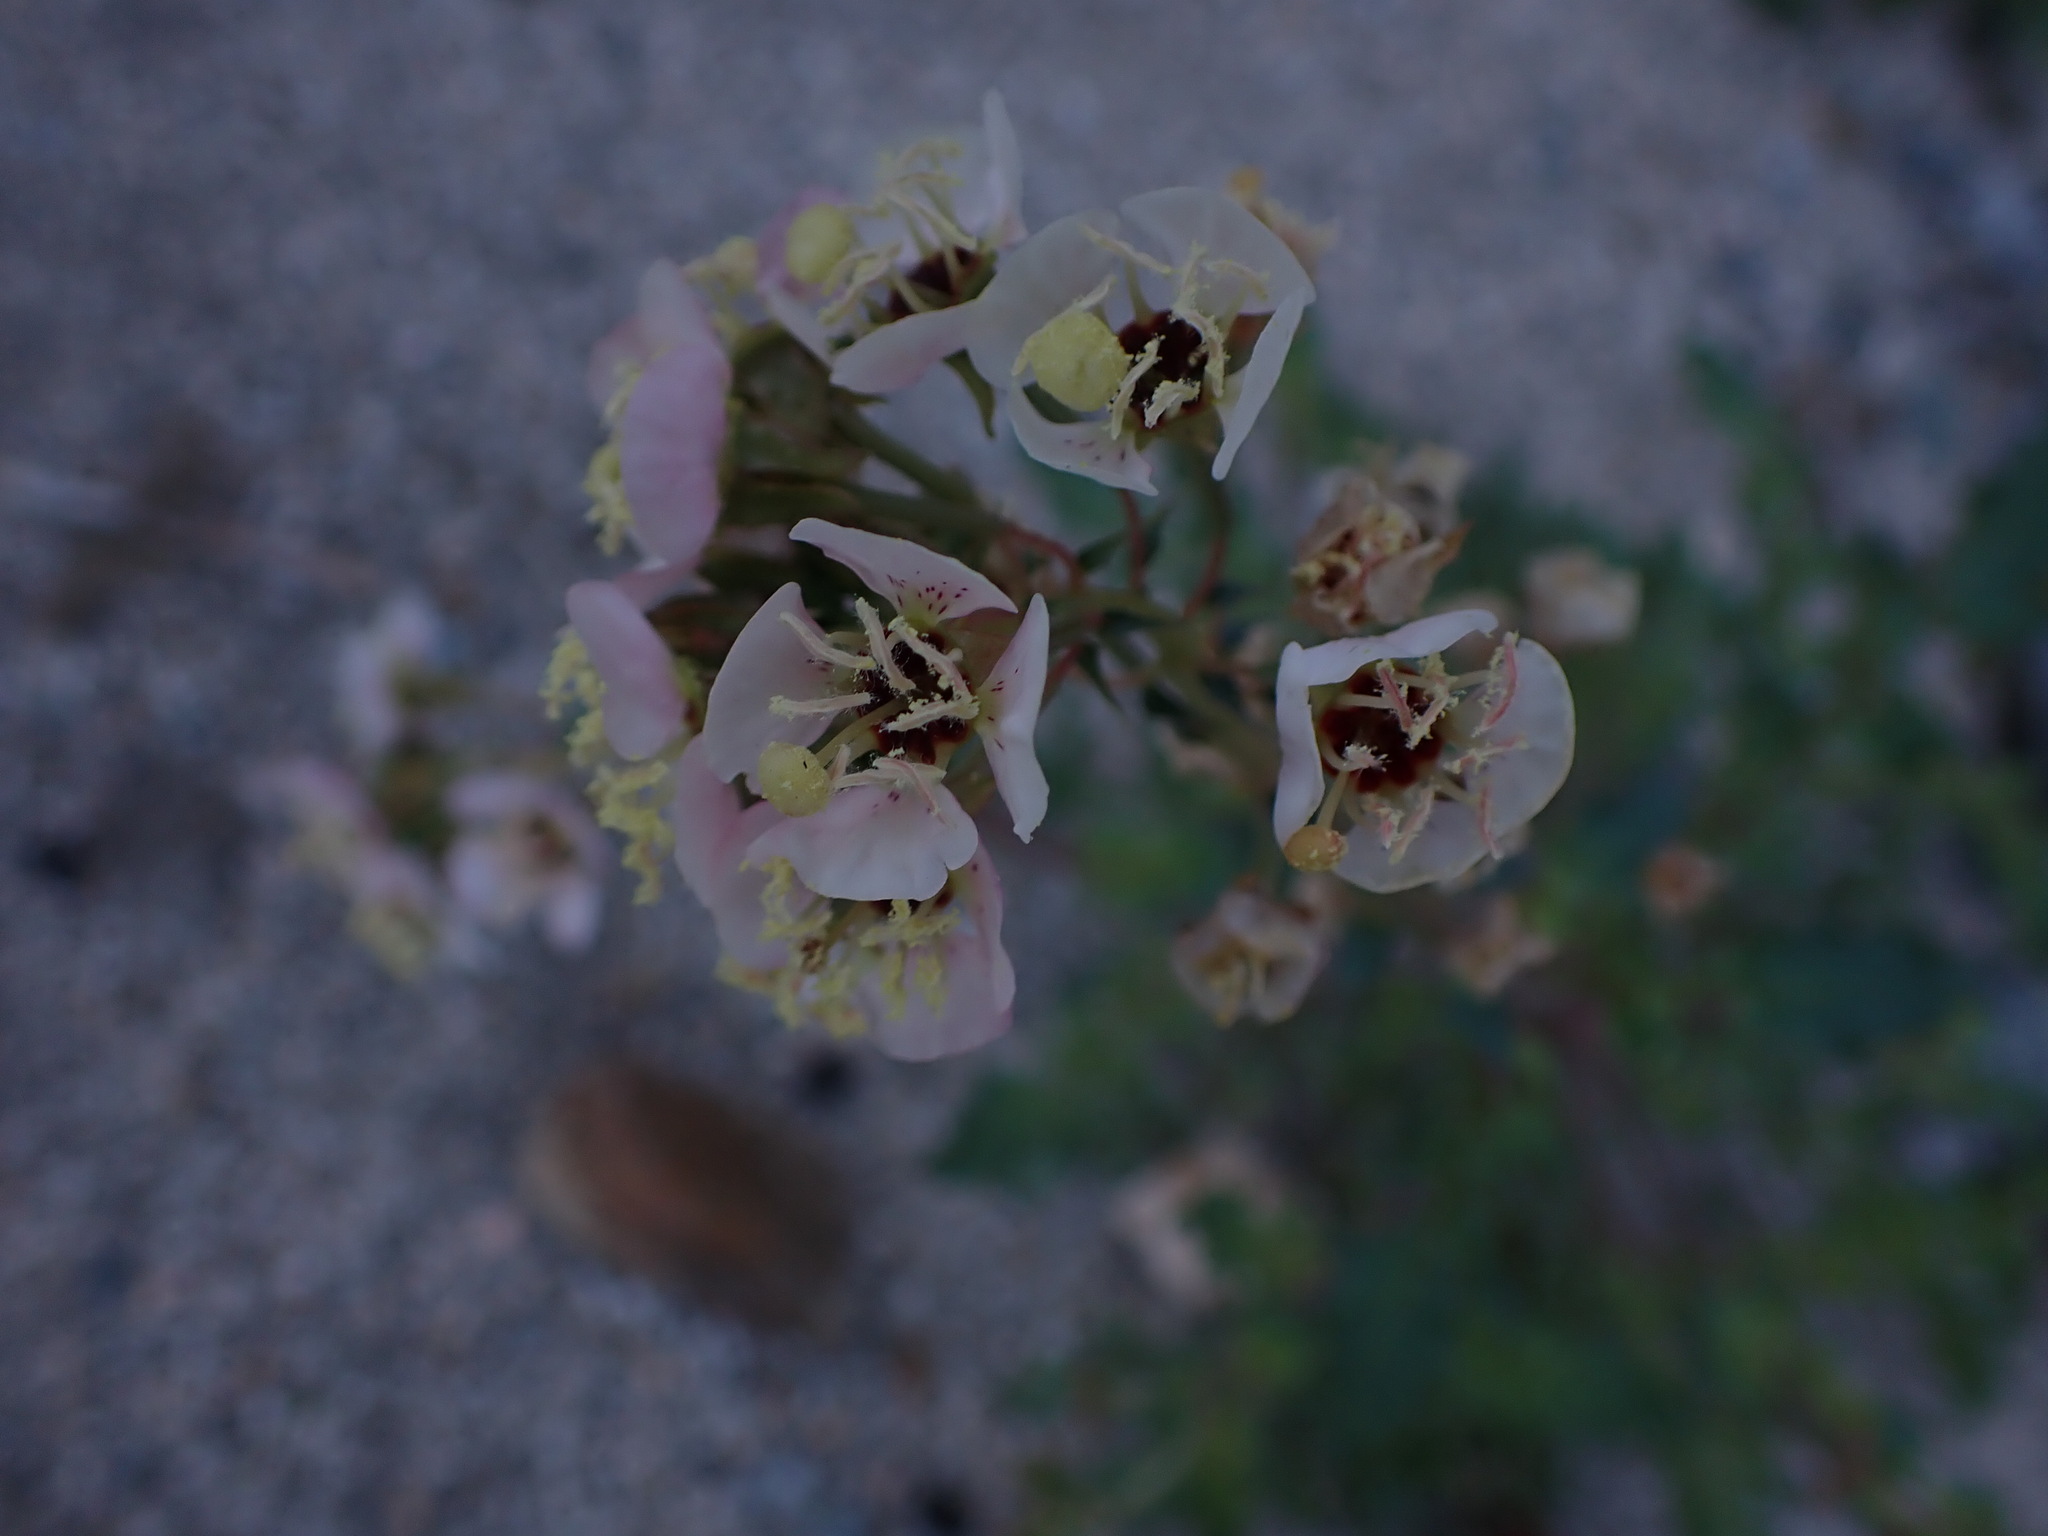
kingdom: Plantae
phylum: Tracheophyta
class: Magnoliopsida
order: Myrtales
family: Onagraceae
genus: Chylismia
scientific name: Chylismia claviformis
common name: Browneyes
